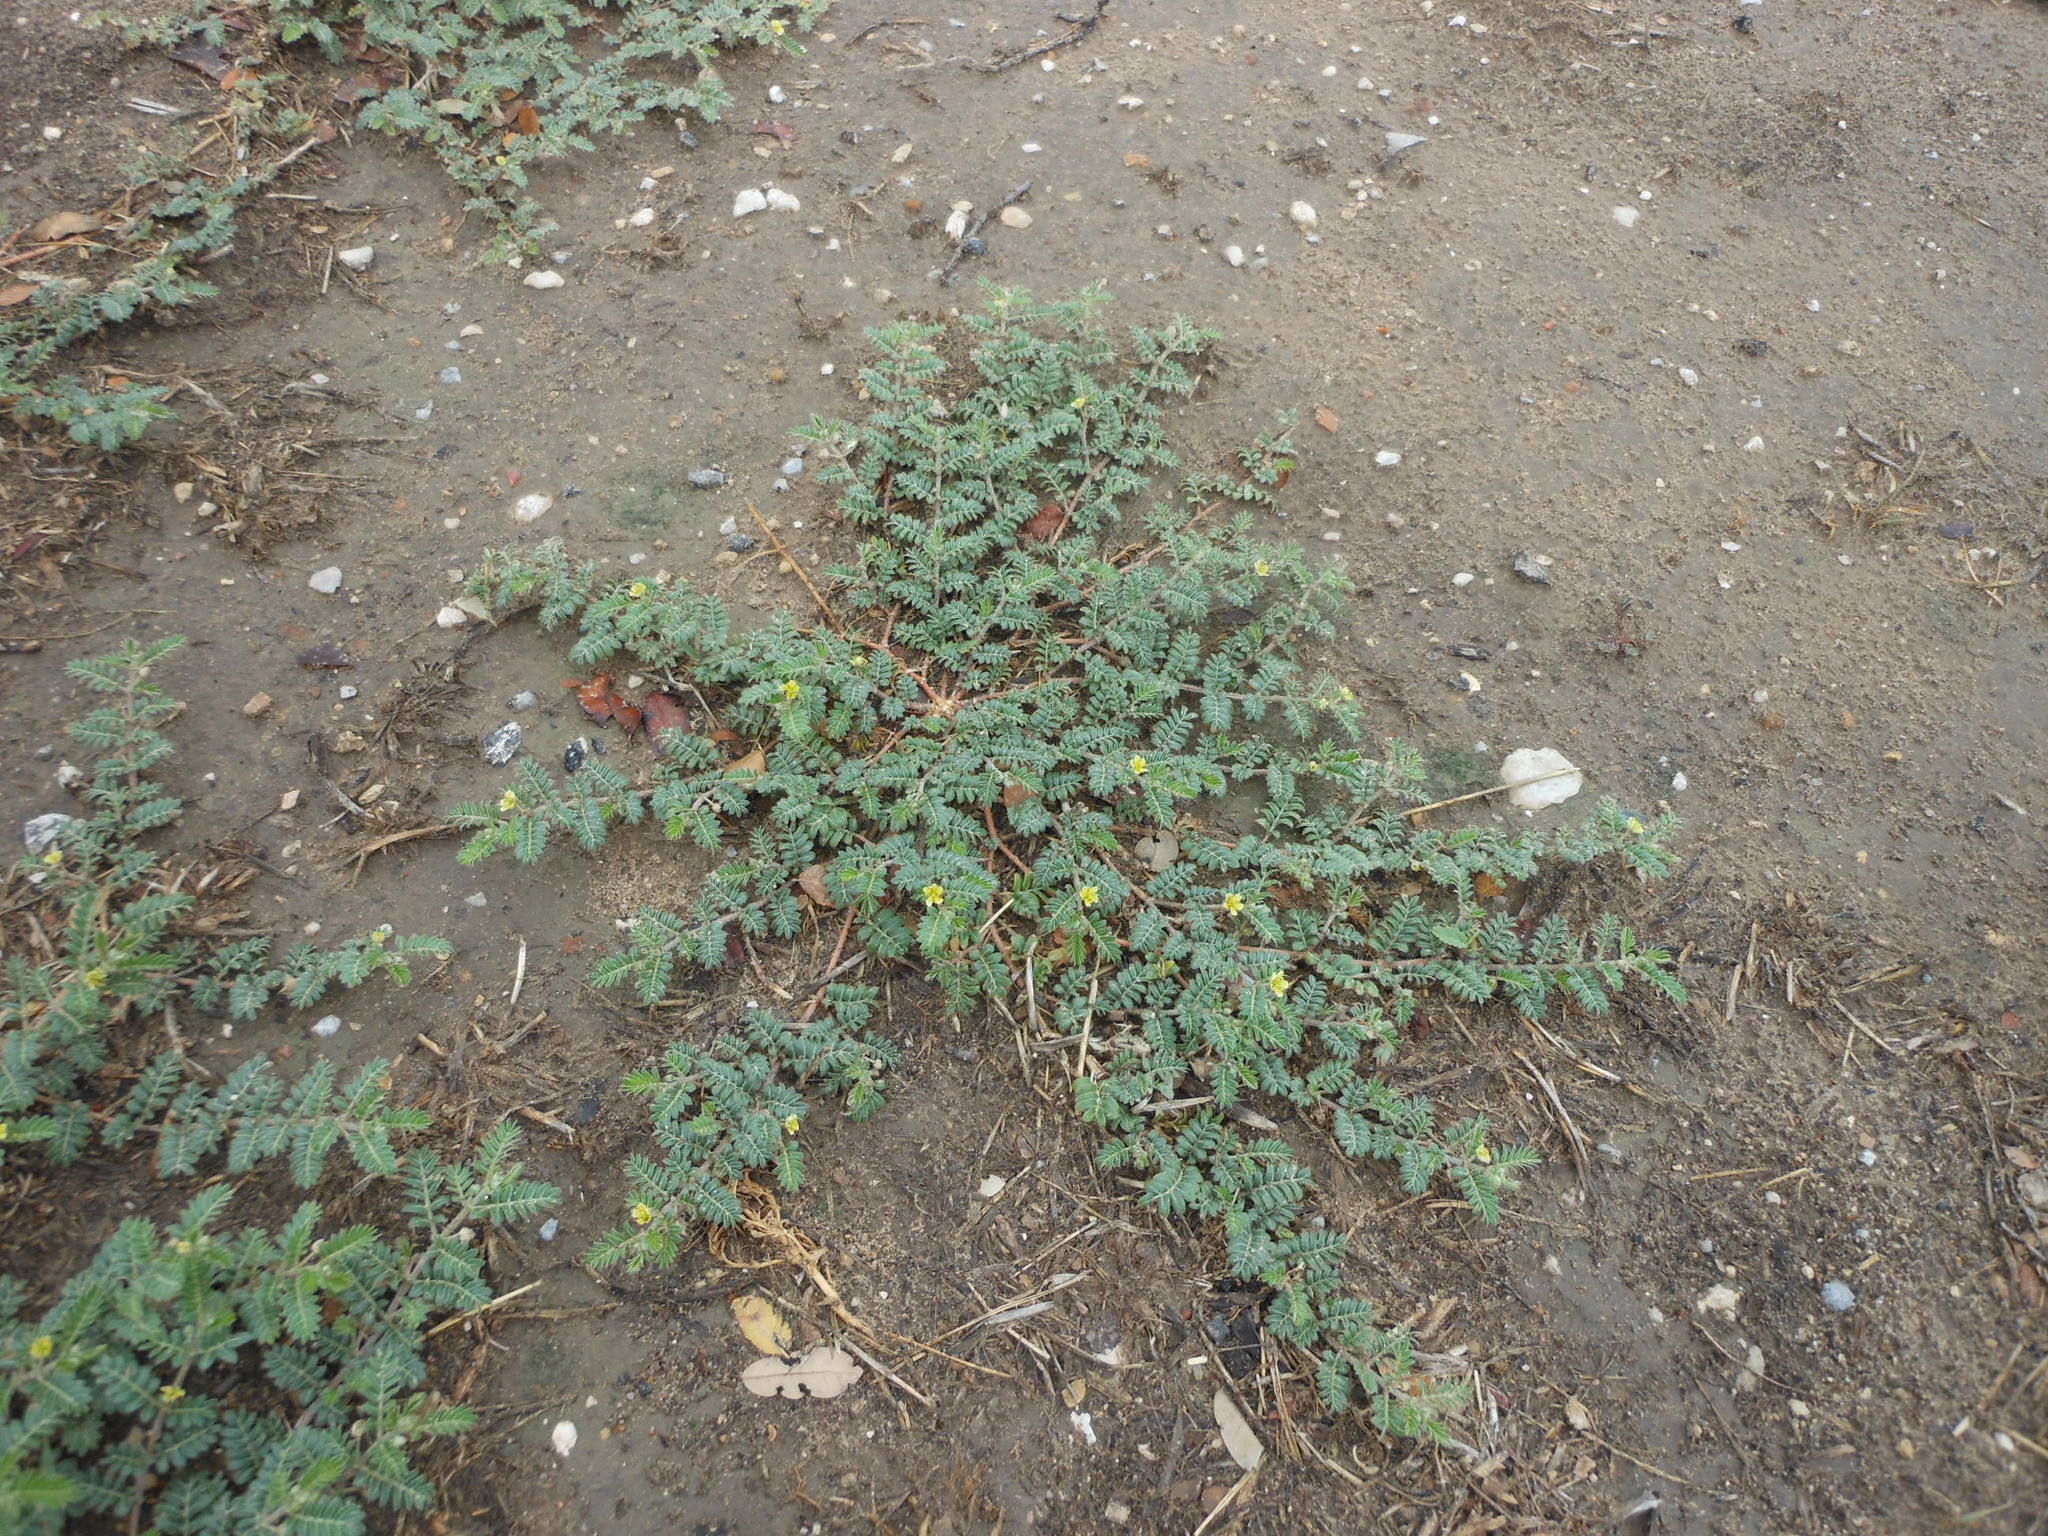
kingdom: Plantae
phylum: Tracheophyta
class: Magnoliopsida
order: Zygophyllales
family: Zygophyllaceae
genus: Tribulus
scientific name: Tribulus terrestris
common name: Puncturevine
